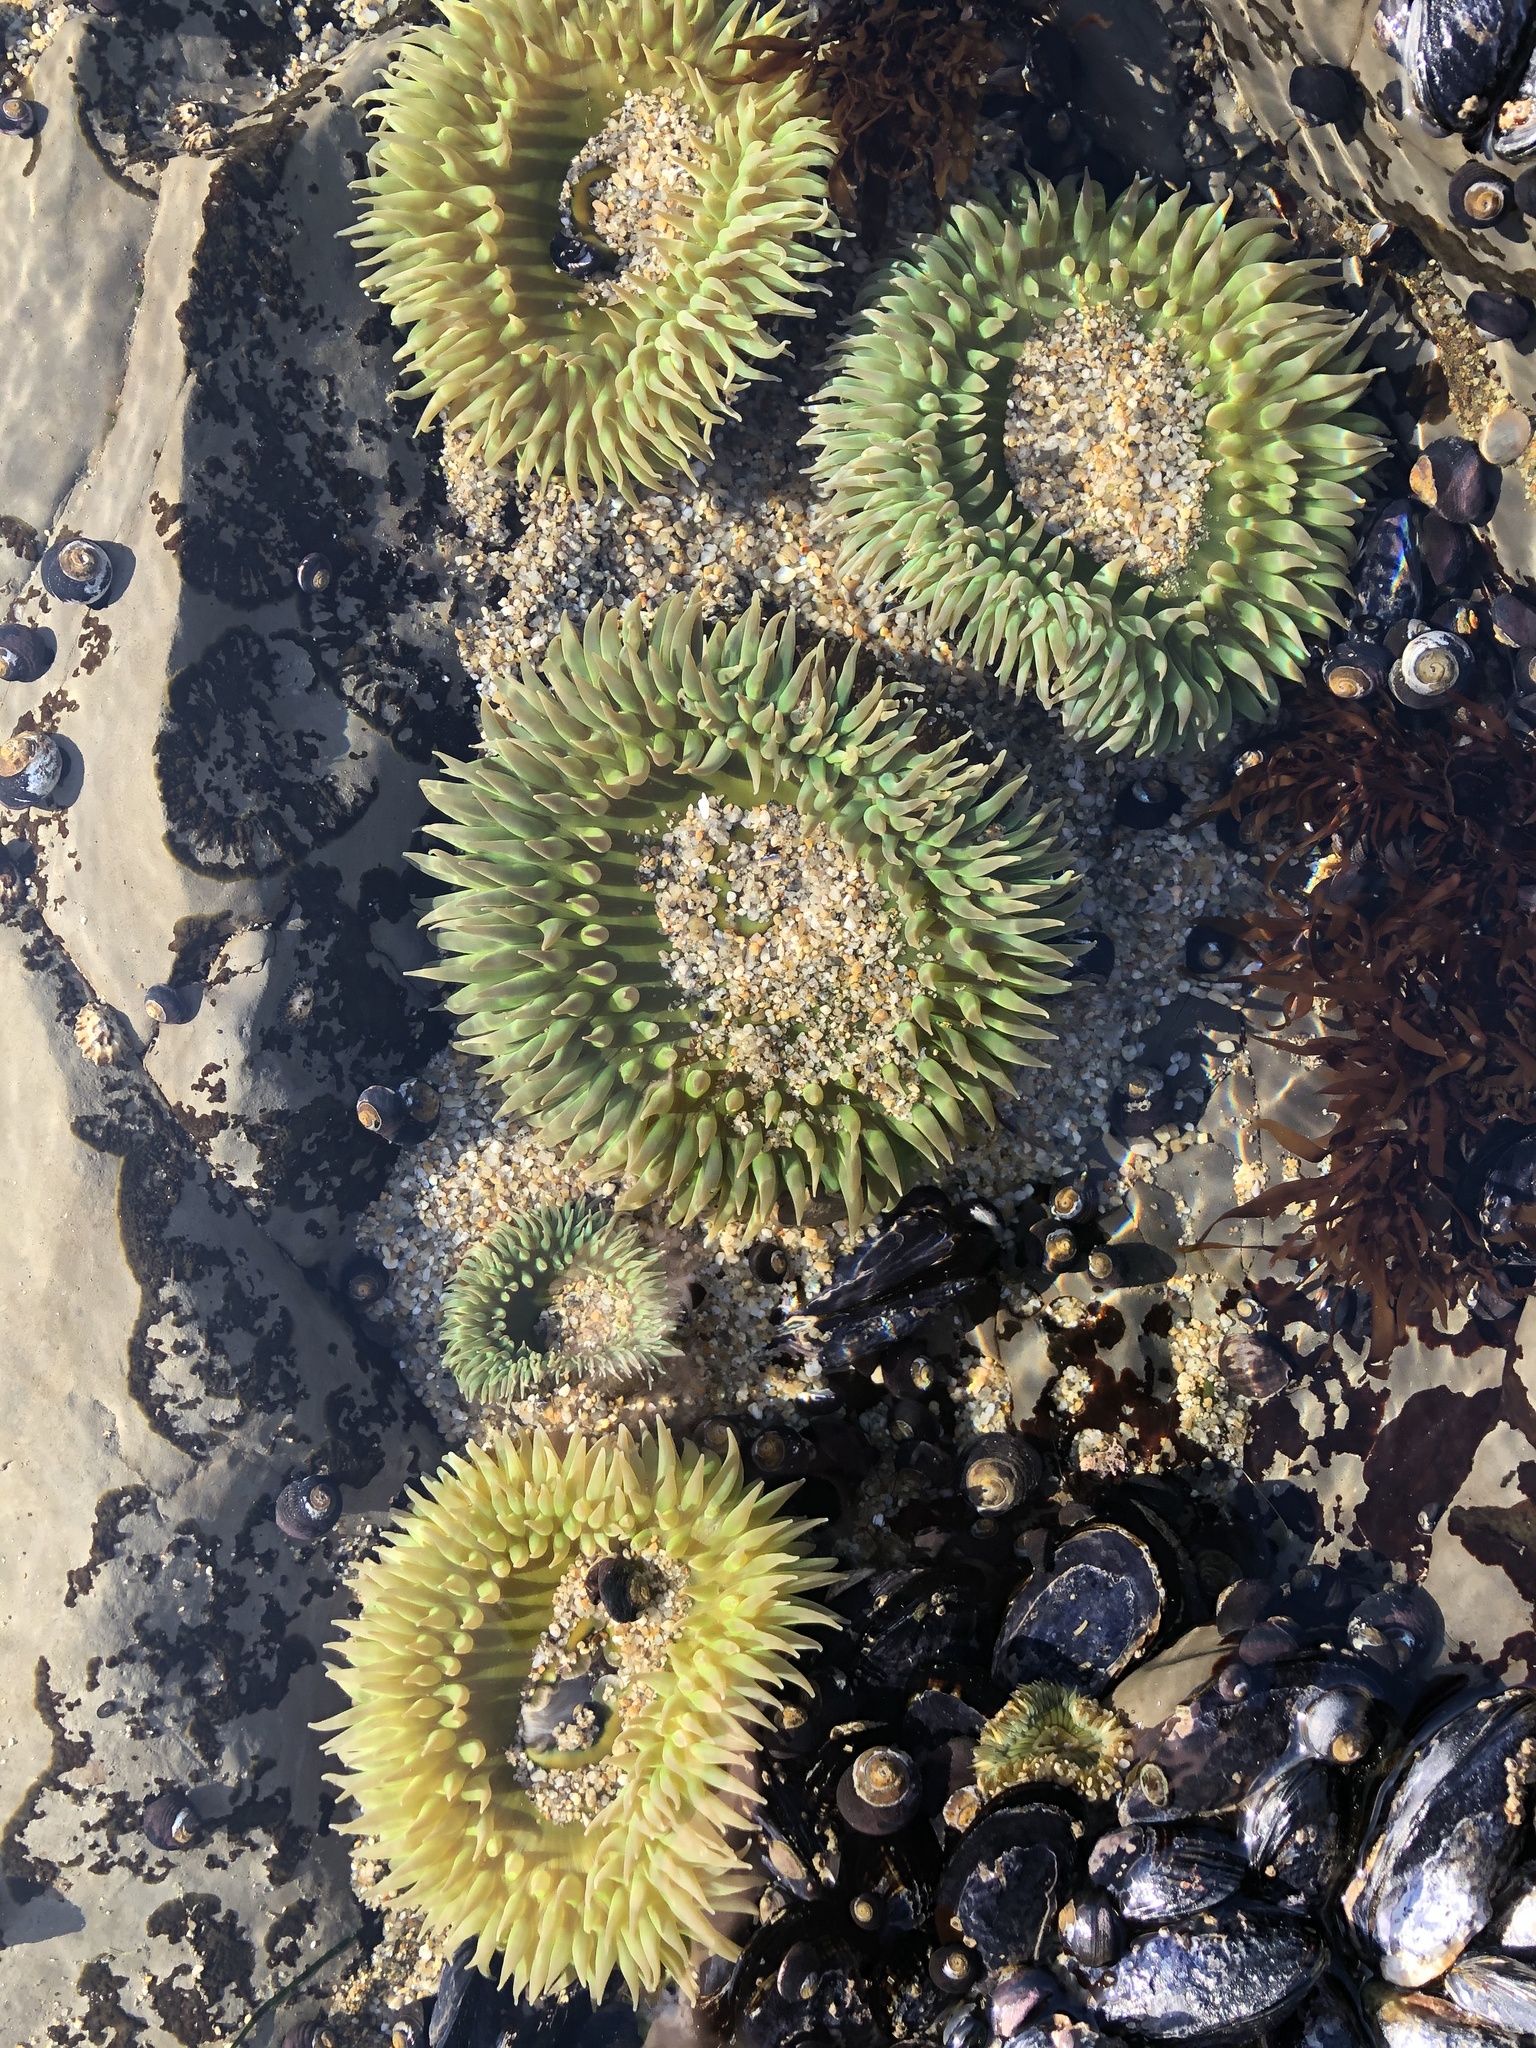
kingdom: Animalia
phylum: Cnidaria
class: Anthozoa
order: Actiniaria
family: Actiniidae
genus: Anthopleura
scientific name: Anthopleura xanthogrammica
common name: Giant green anemone
